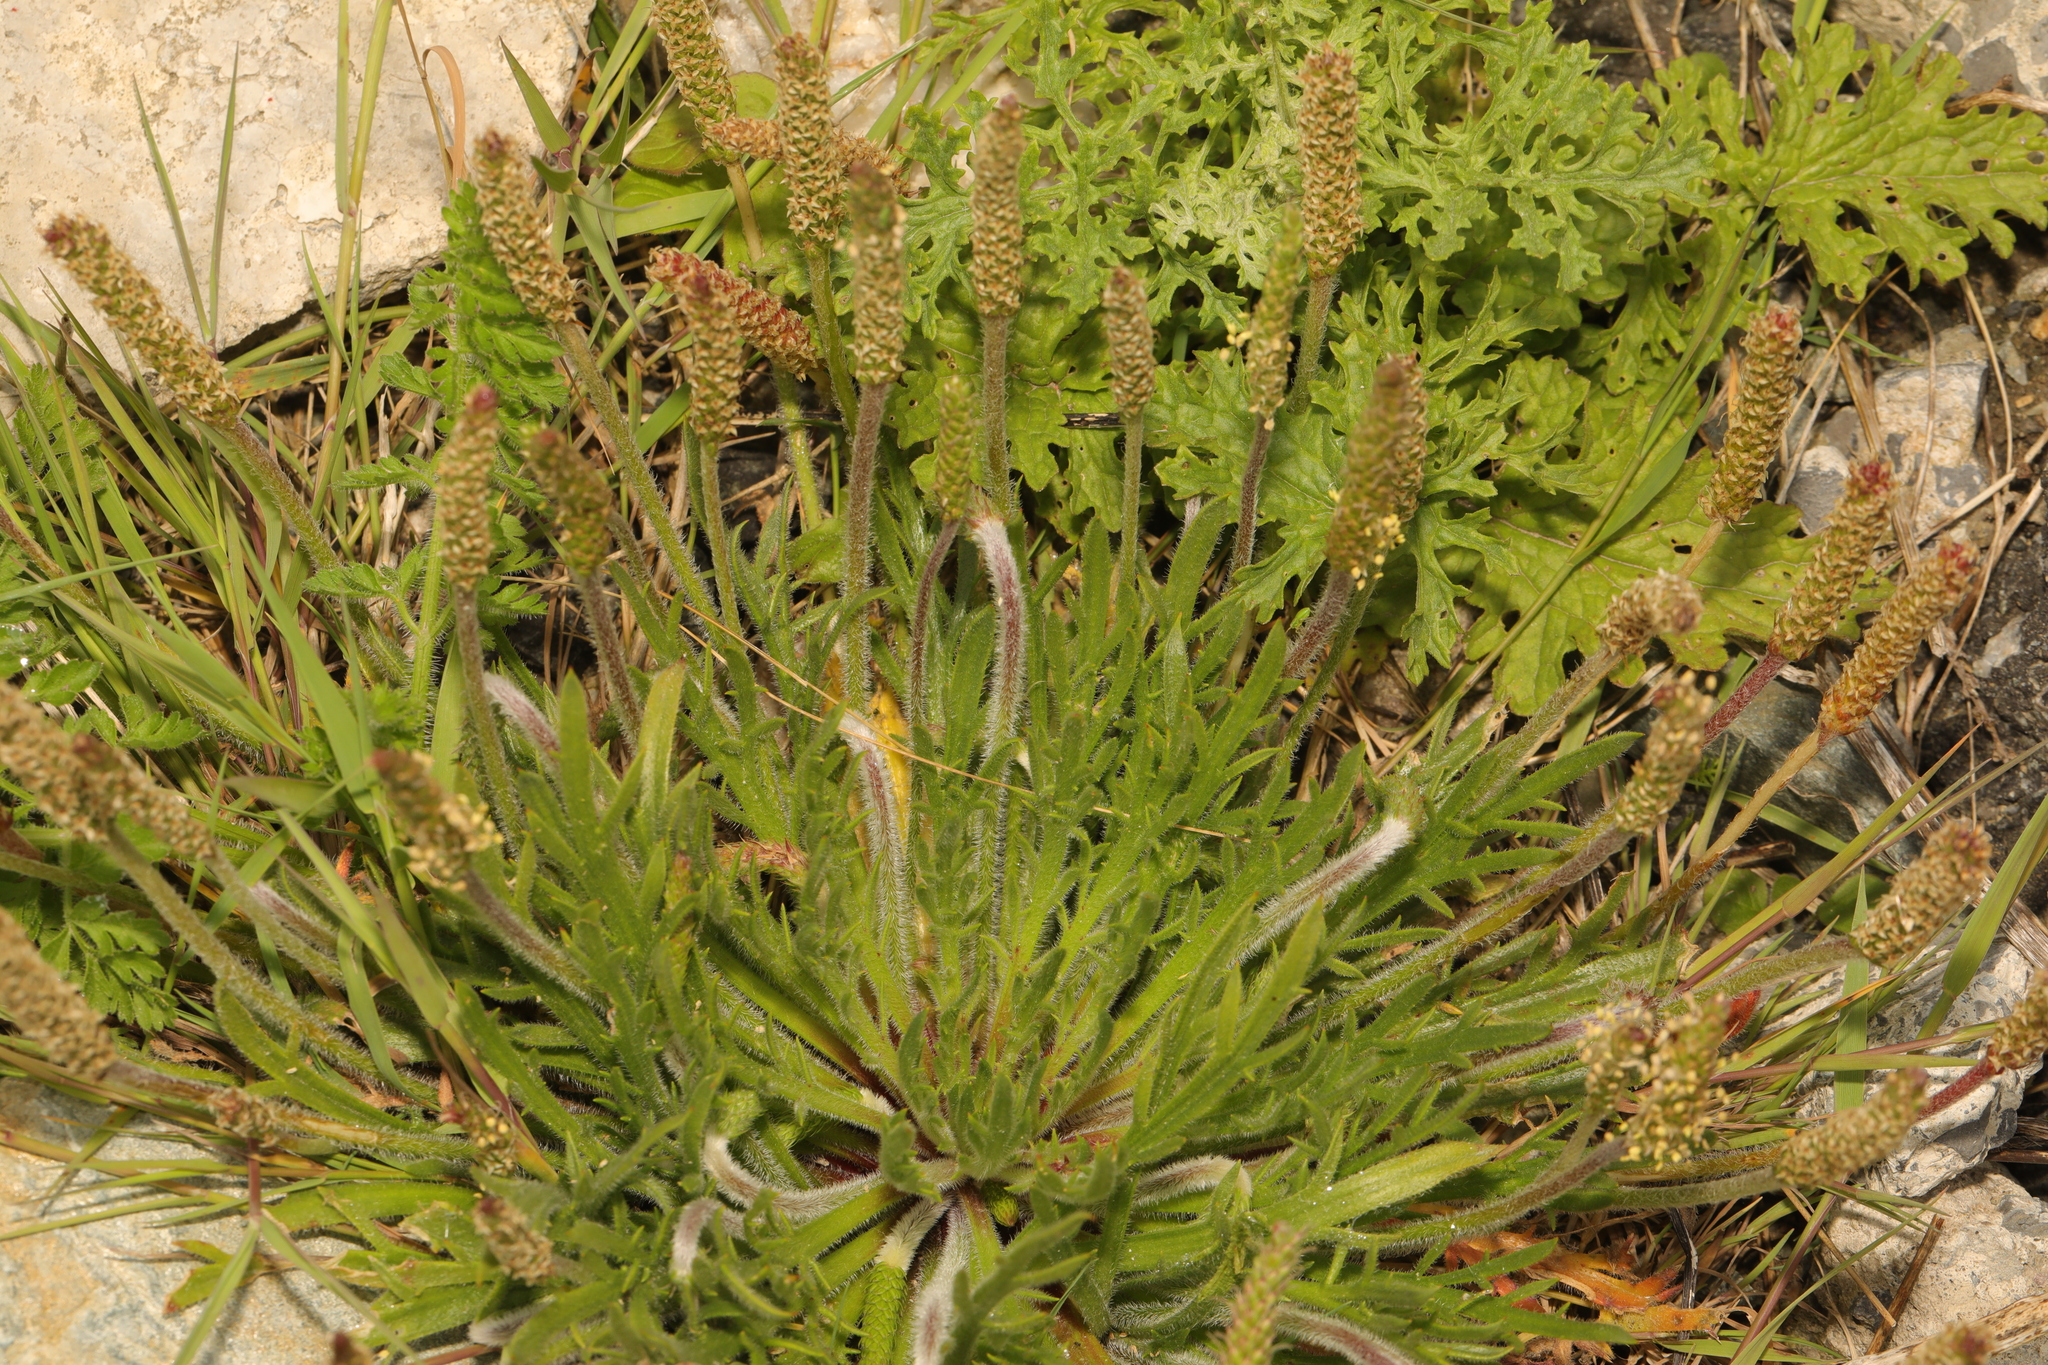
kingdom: Plantae
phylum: Tracheophyta
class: Magnoliopsida
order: Lamiales
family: Plantaginaceae
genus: Plantago
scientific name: Plantago coronopus
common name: Buck's-horn plantain
